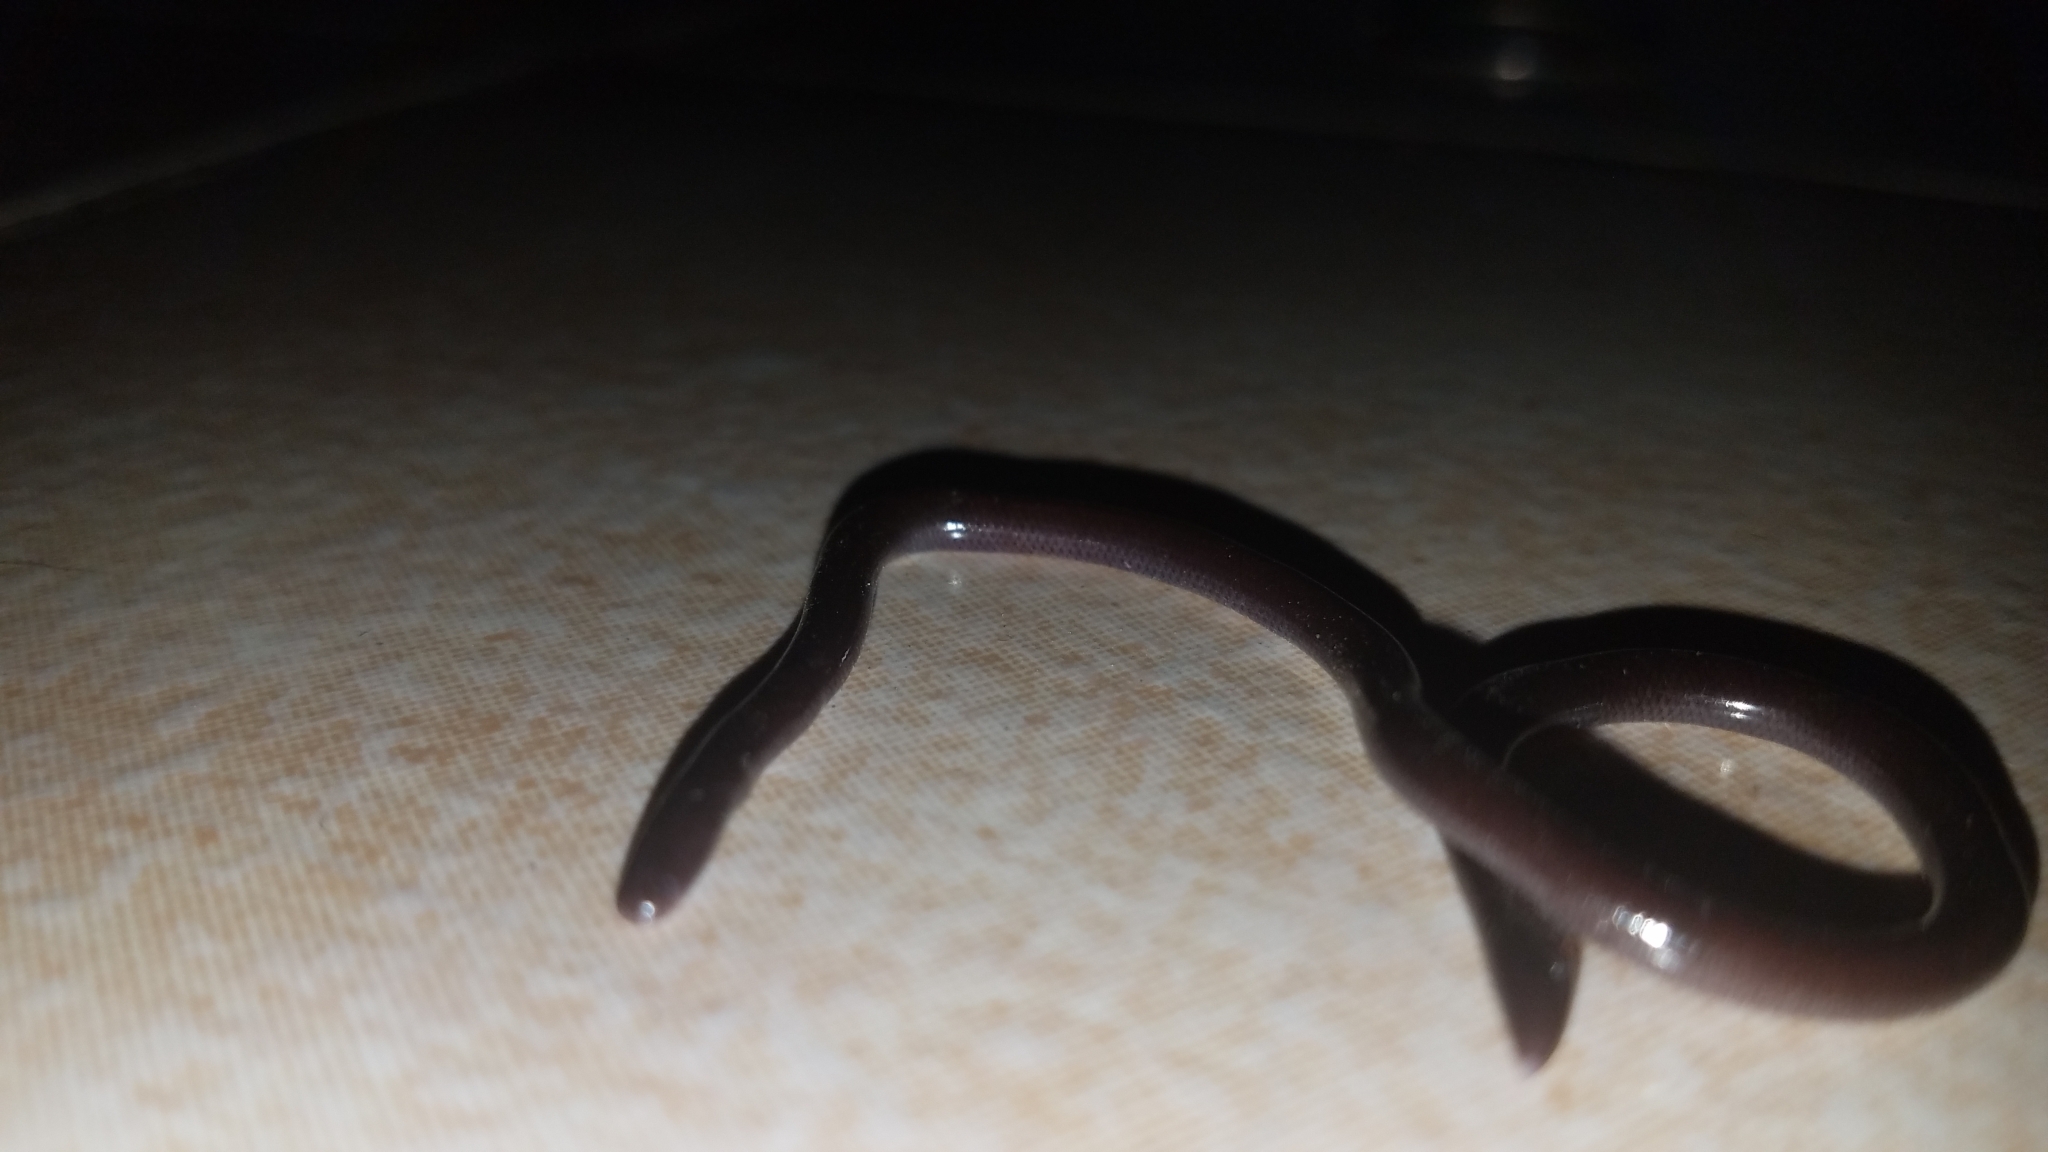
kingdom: Animalia
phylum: Chordata
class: Squamata
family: Typhlopidae
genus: Indotyphlops
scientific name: Indotyphlops braminus
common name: Brahminy blindsnake
